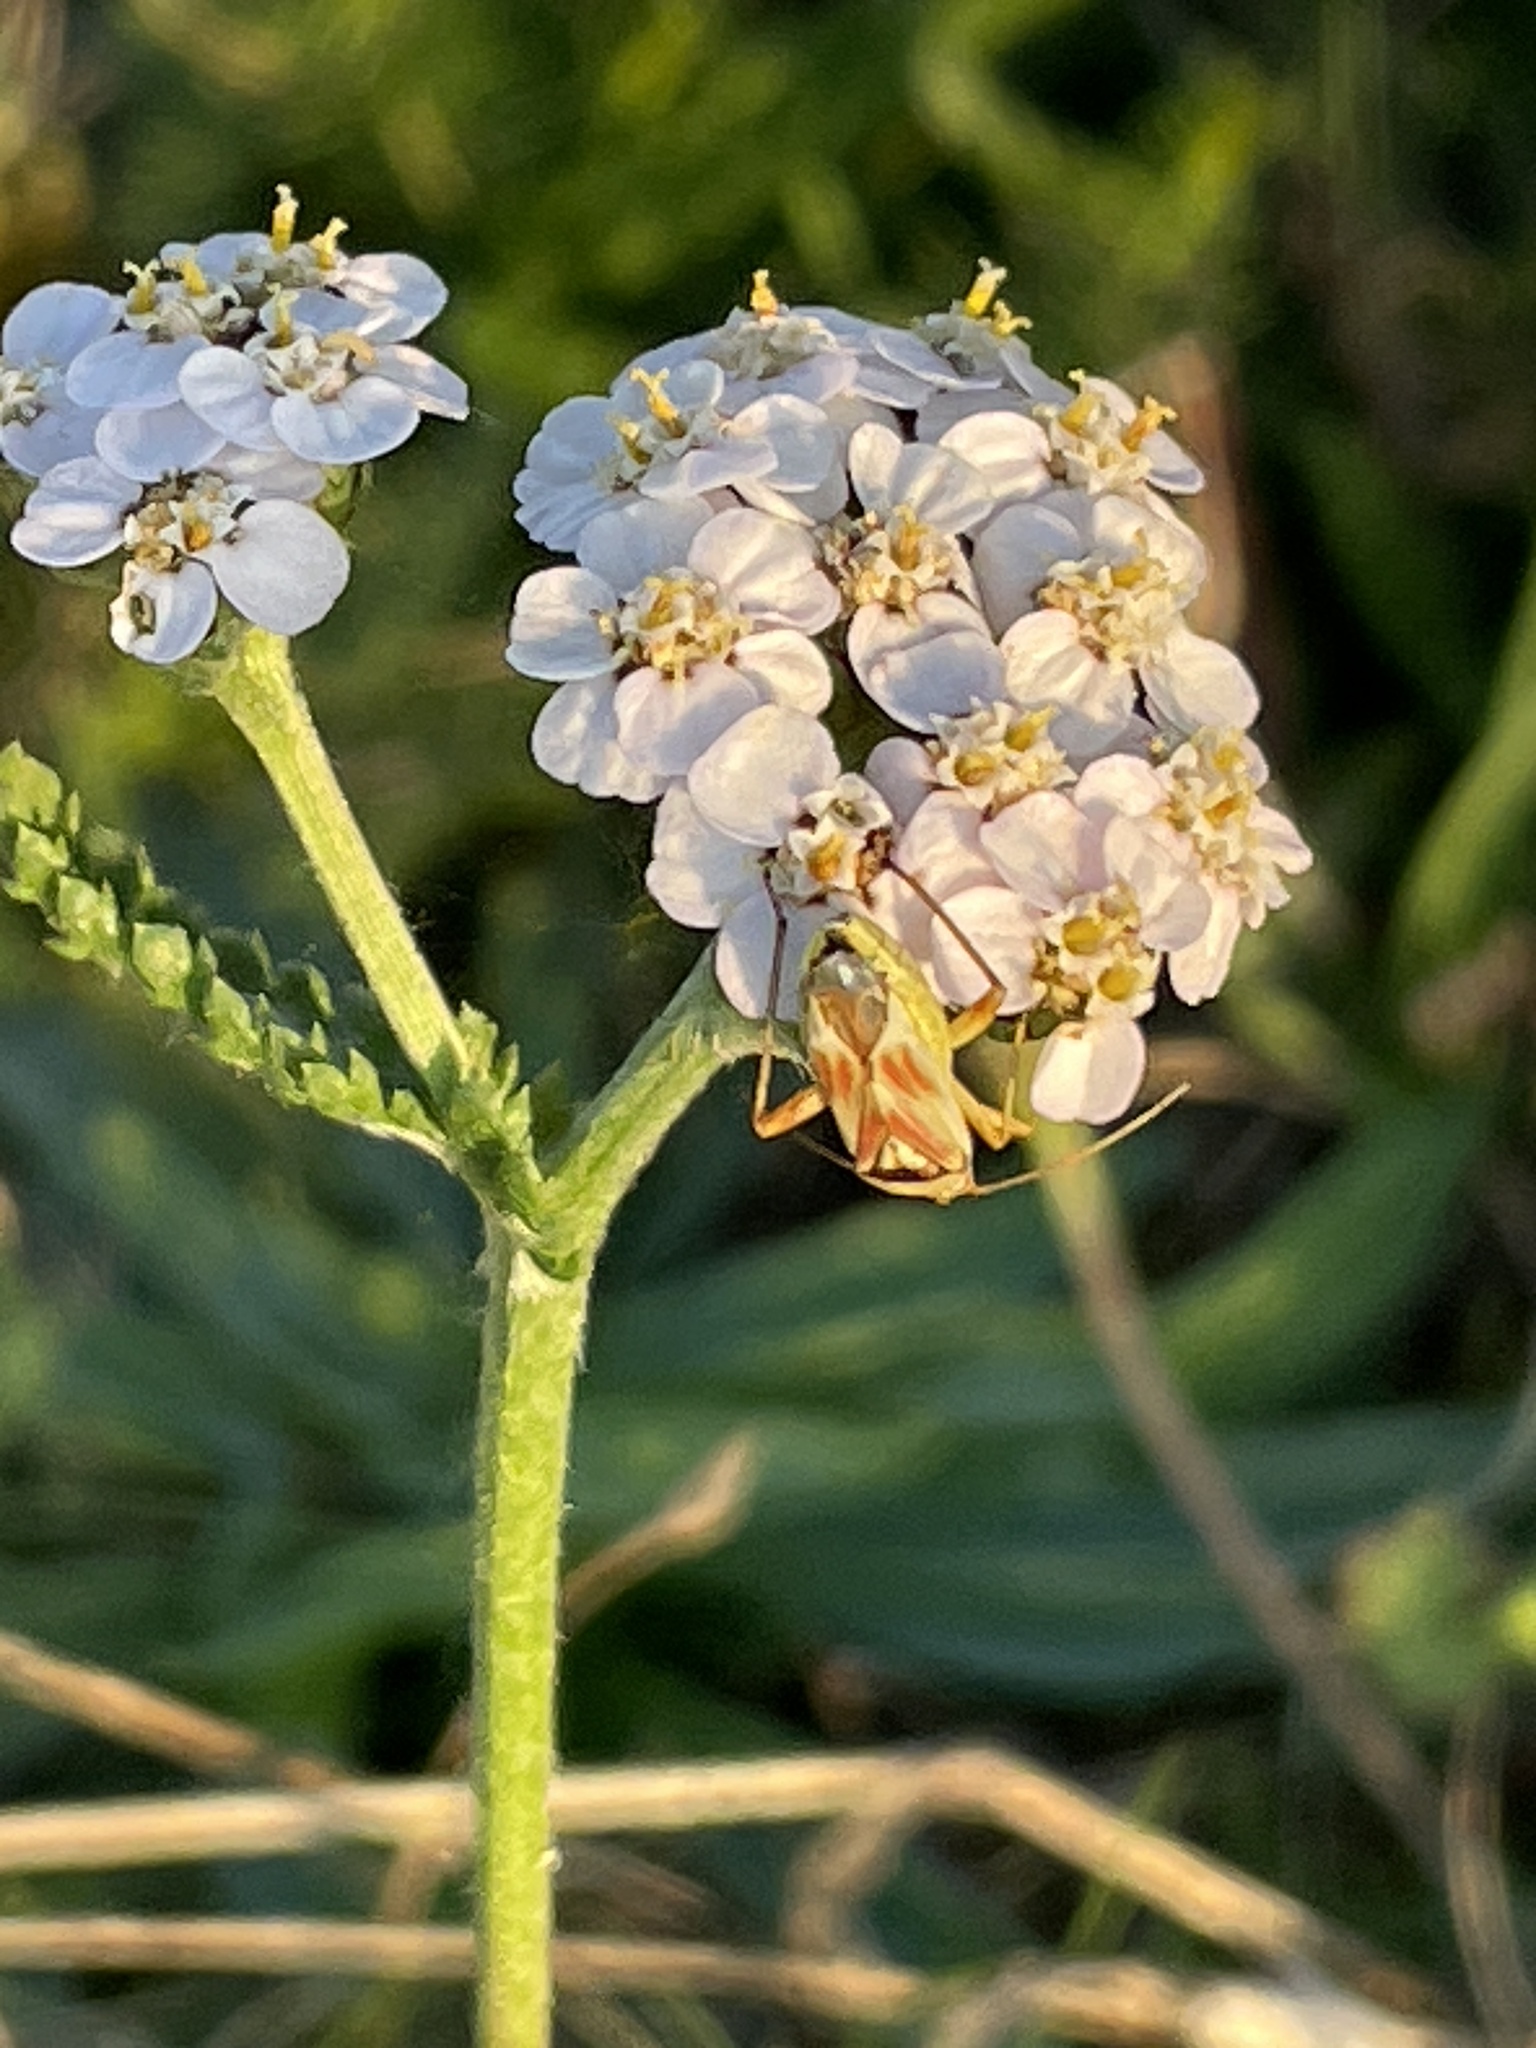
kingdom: Animalia
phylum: Arthropoda
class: Insecta
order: Hemiptera
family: Miridae
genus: Calocoris
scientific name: Calocoris roseomaculatus
